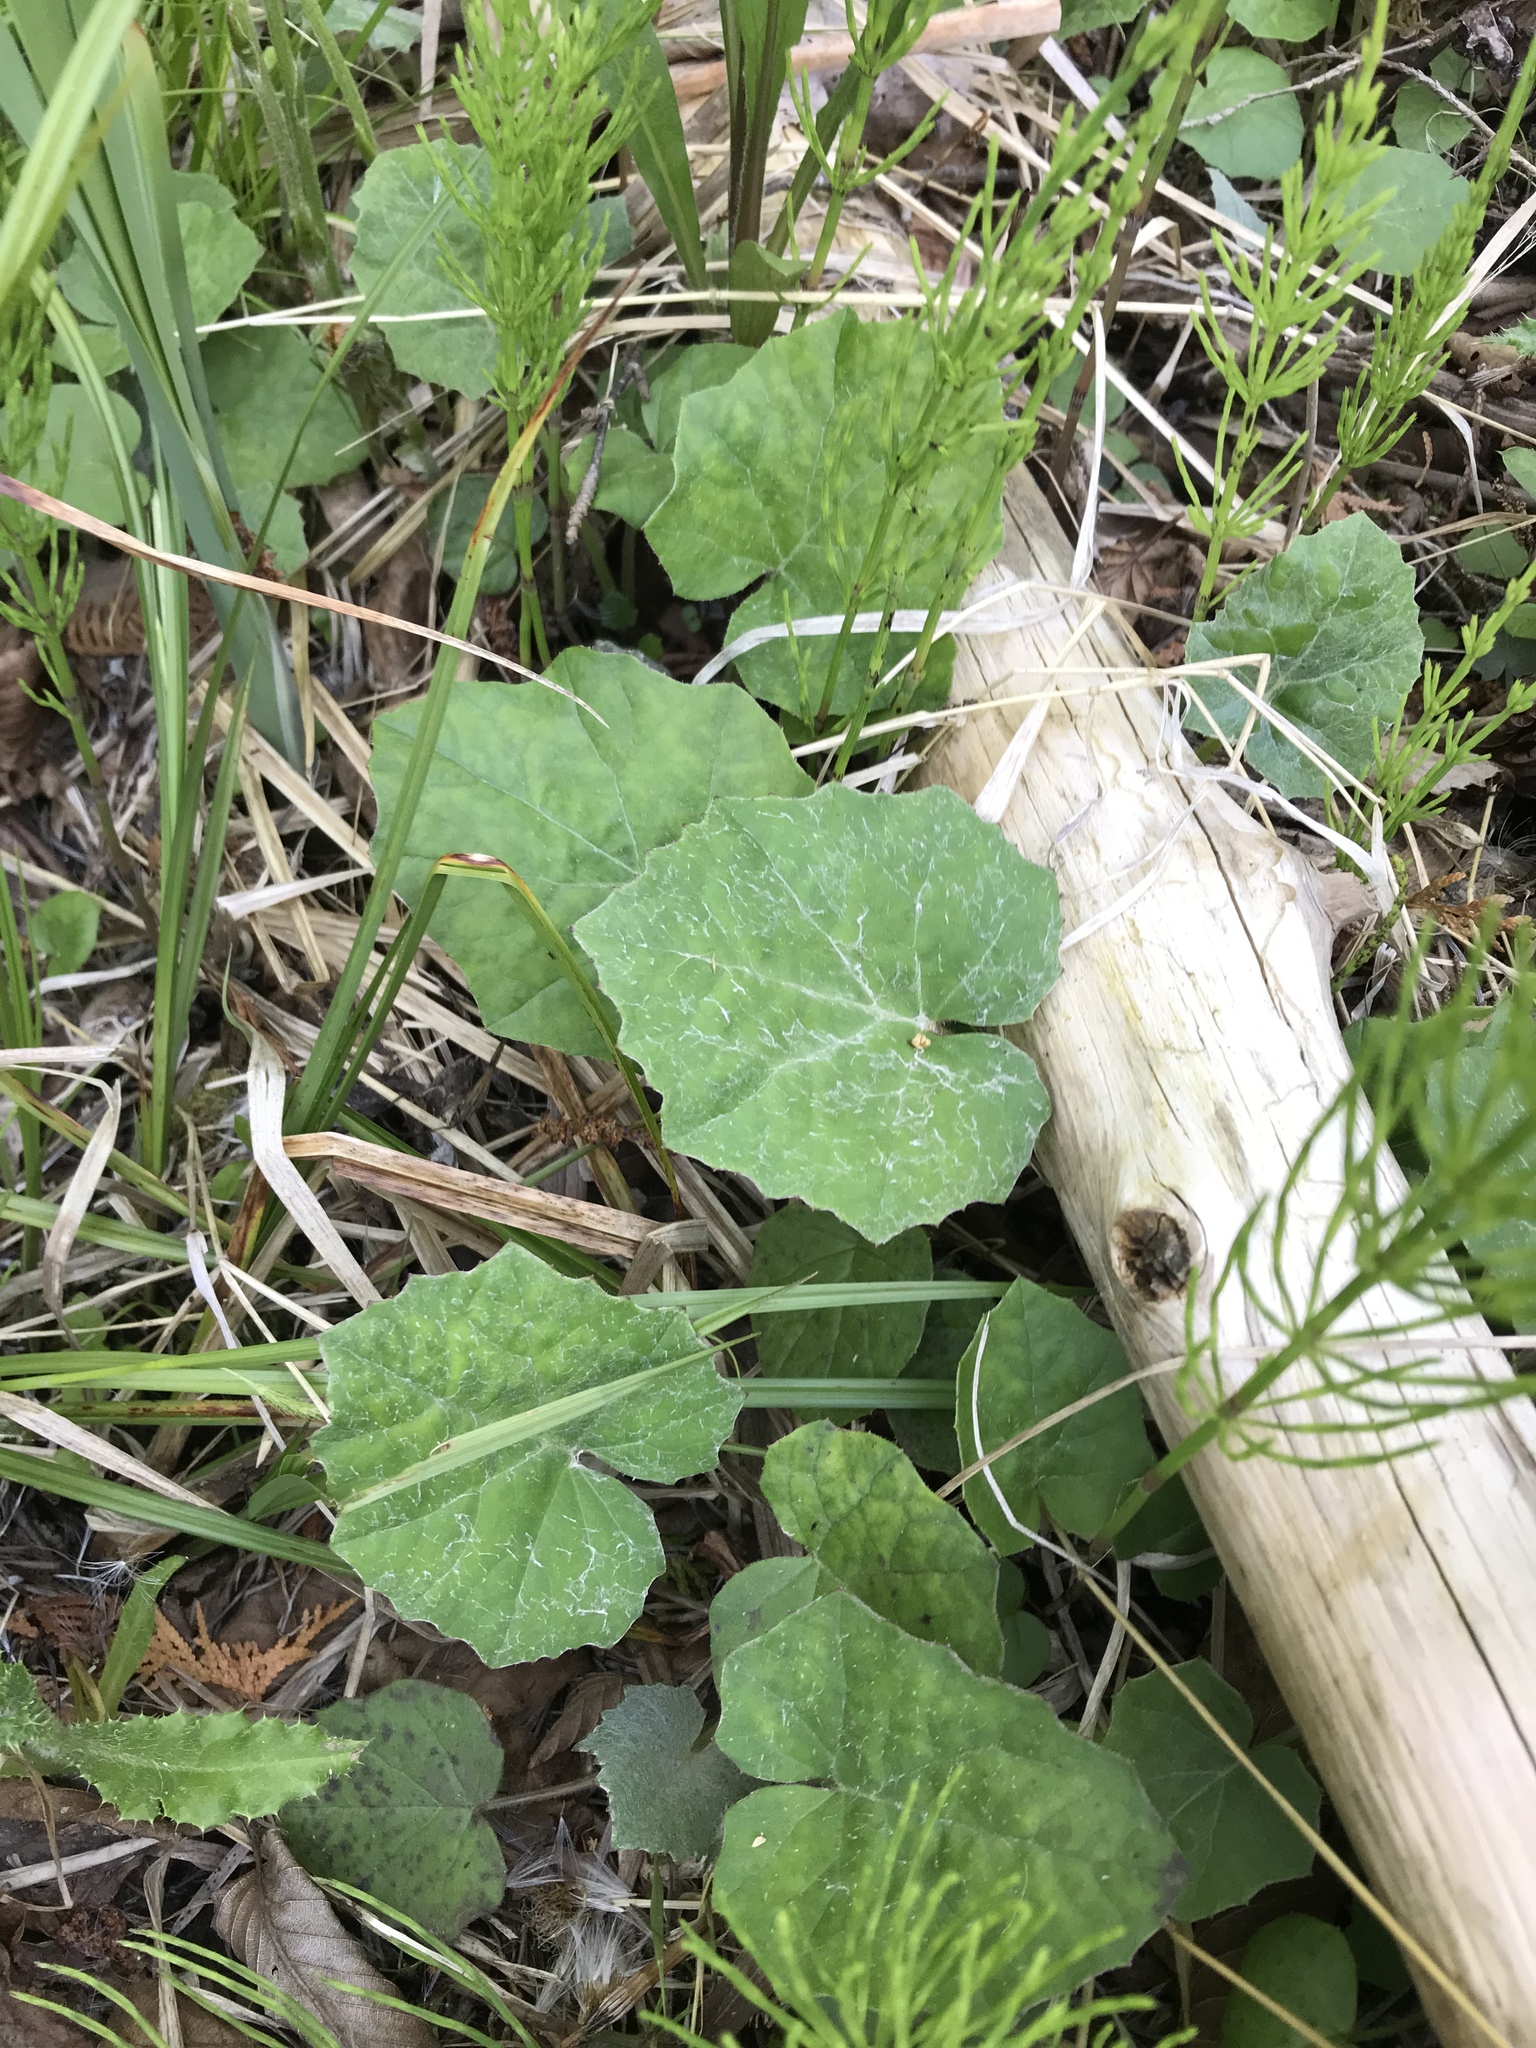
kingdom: Plantae
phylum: Tracheophyta
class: Magnoliopsida
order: Asterales
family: Asteraceae
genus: Tussilago
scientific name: Tussilago farfara
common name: Coltsfoot
